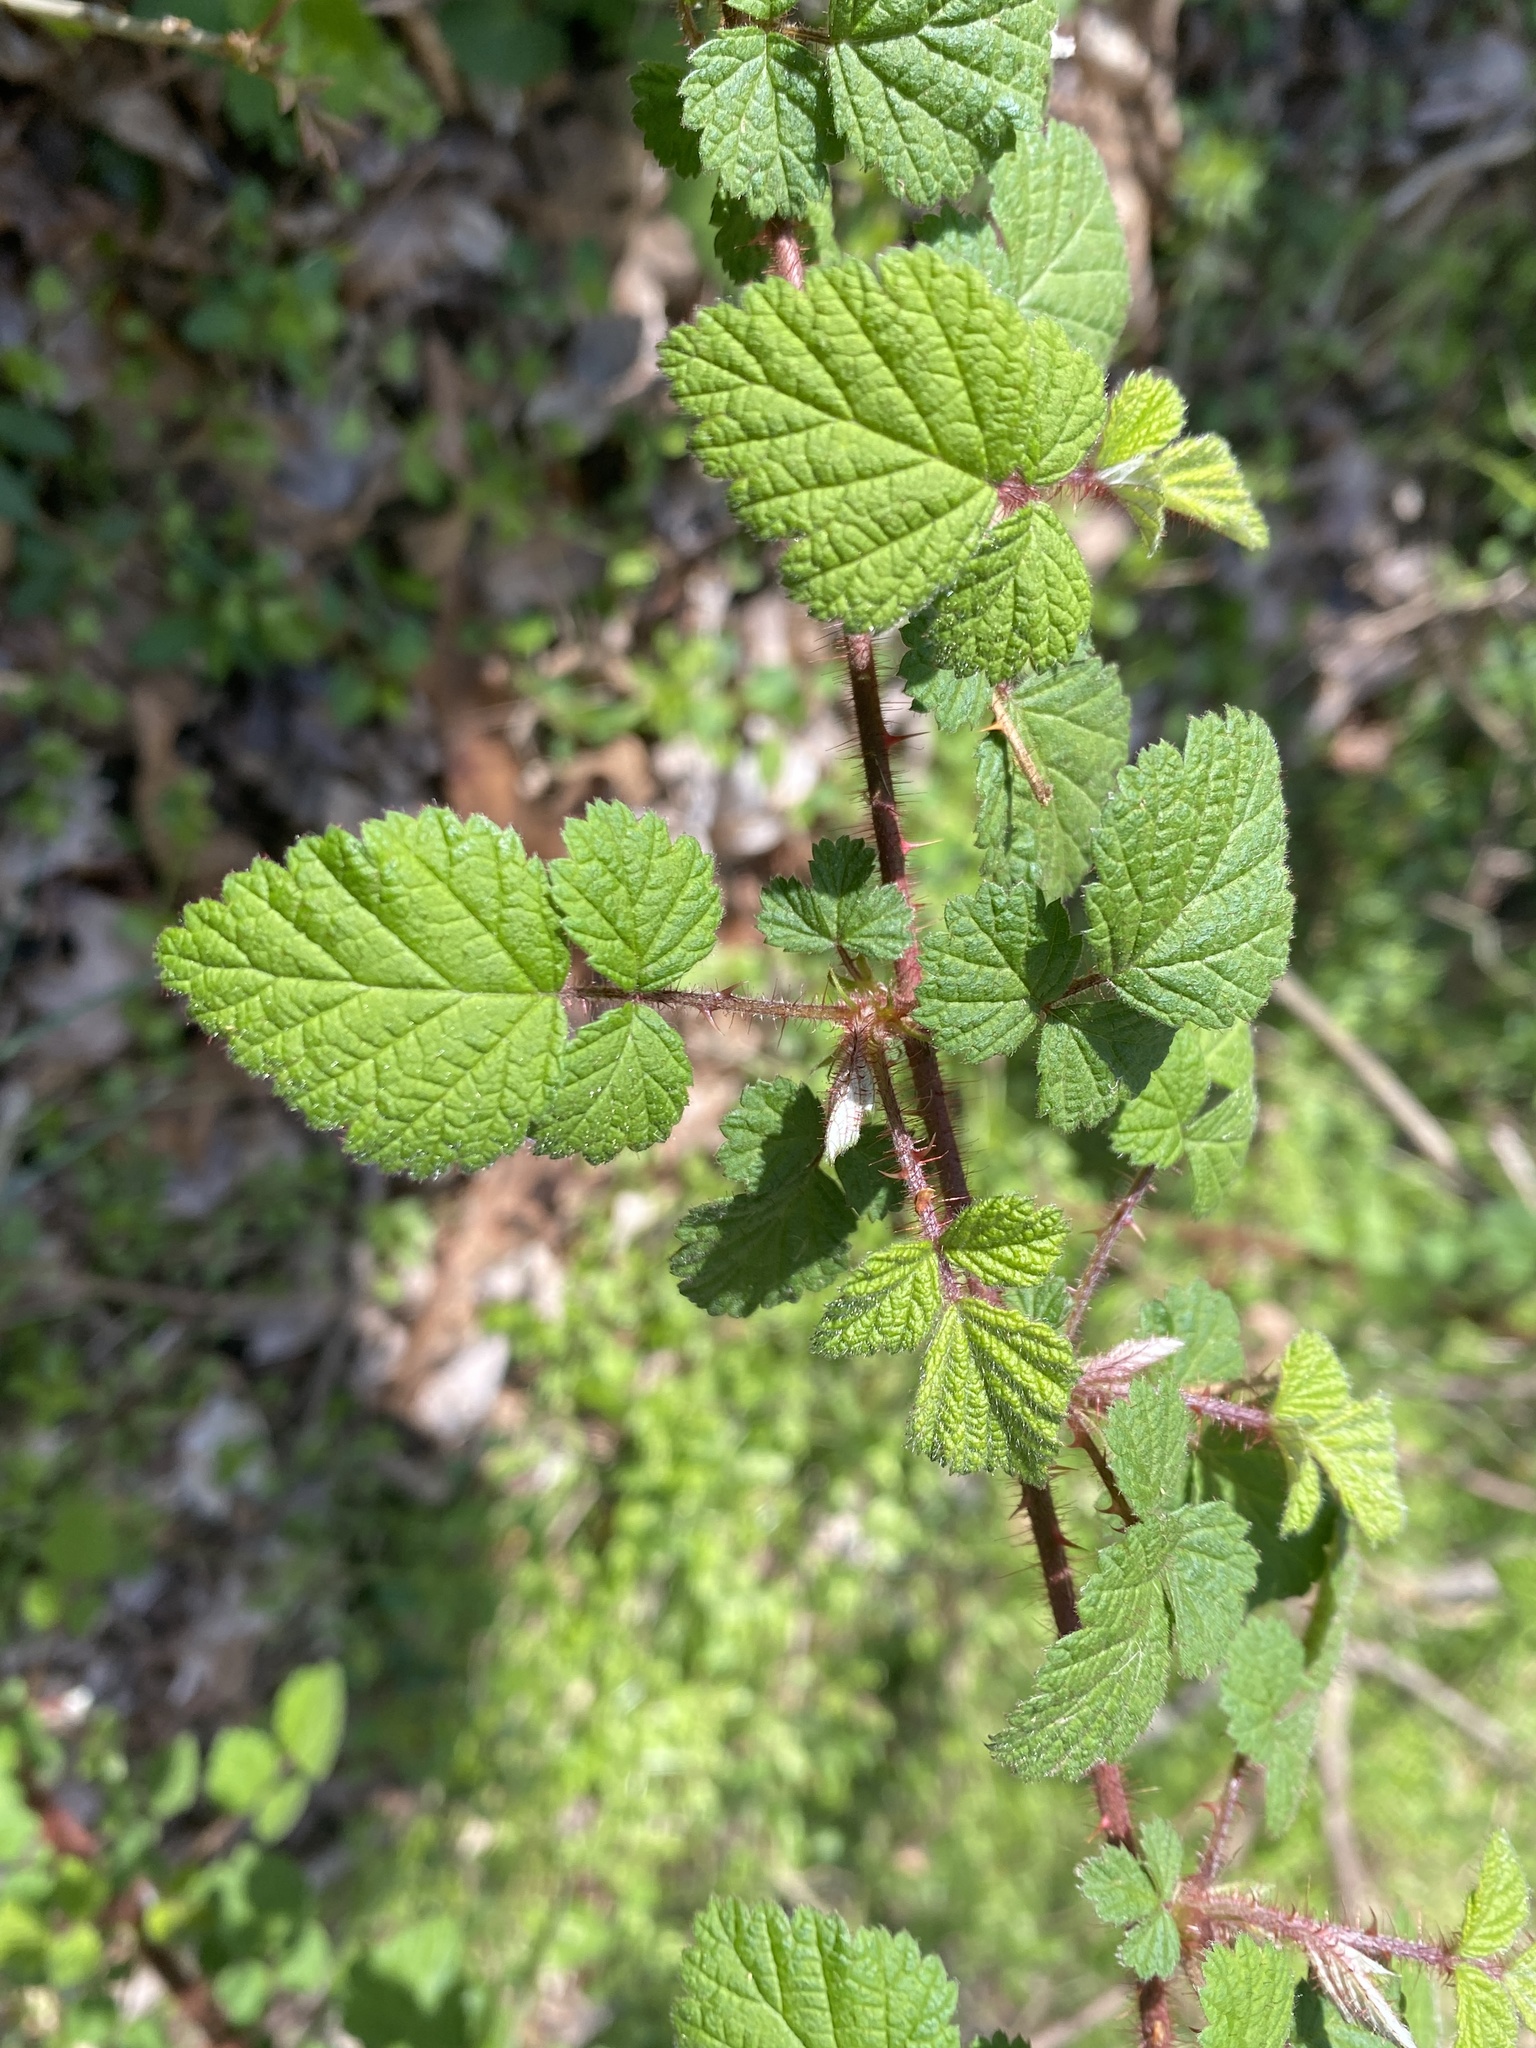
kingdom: Plantae
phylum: Tracheophyta
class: Magnoliopsida
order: Rosales
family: Rosaceae
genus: Rubus
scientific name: Rubus phoenicolasius
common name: Japanese wineberry
